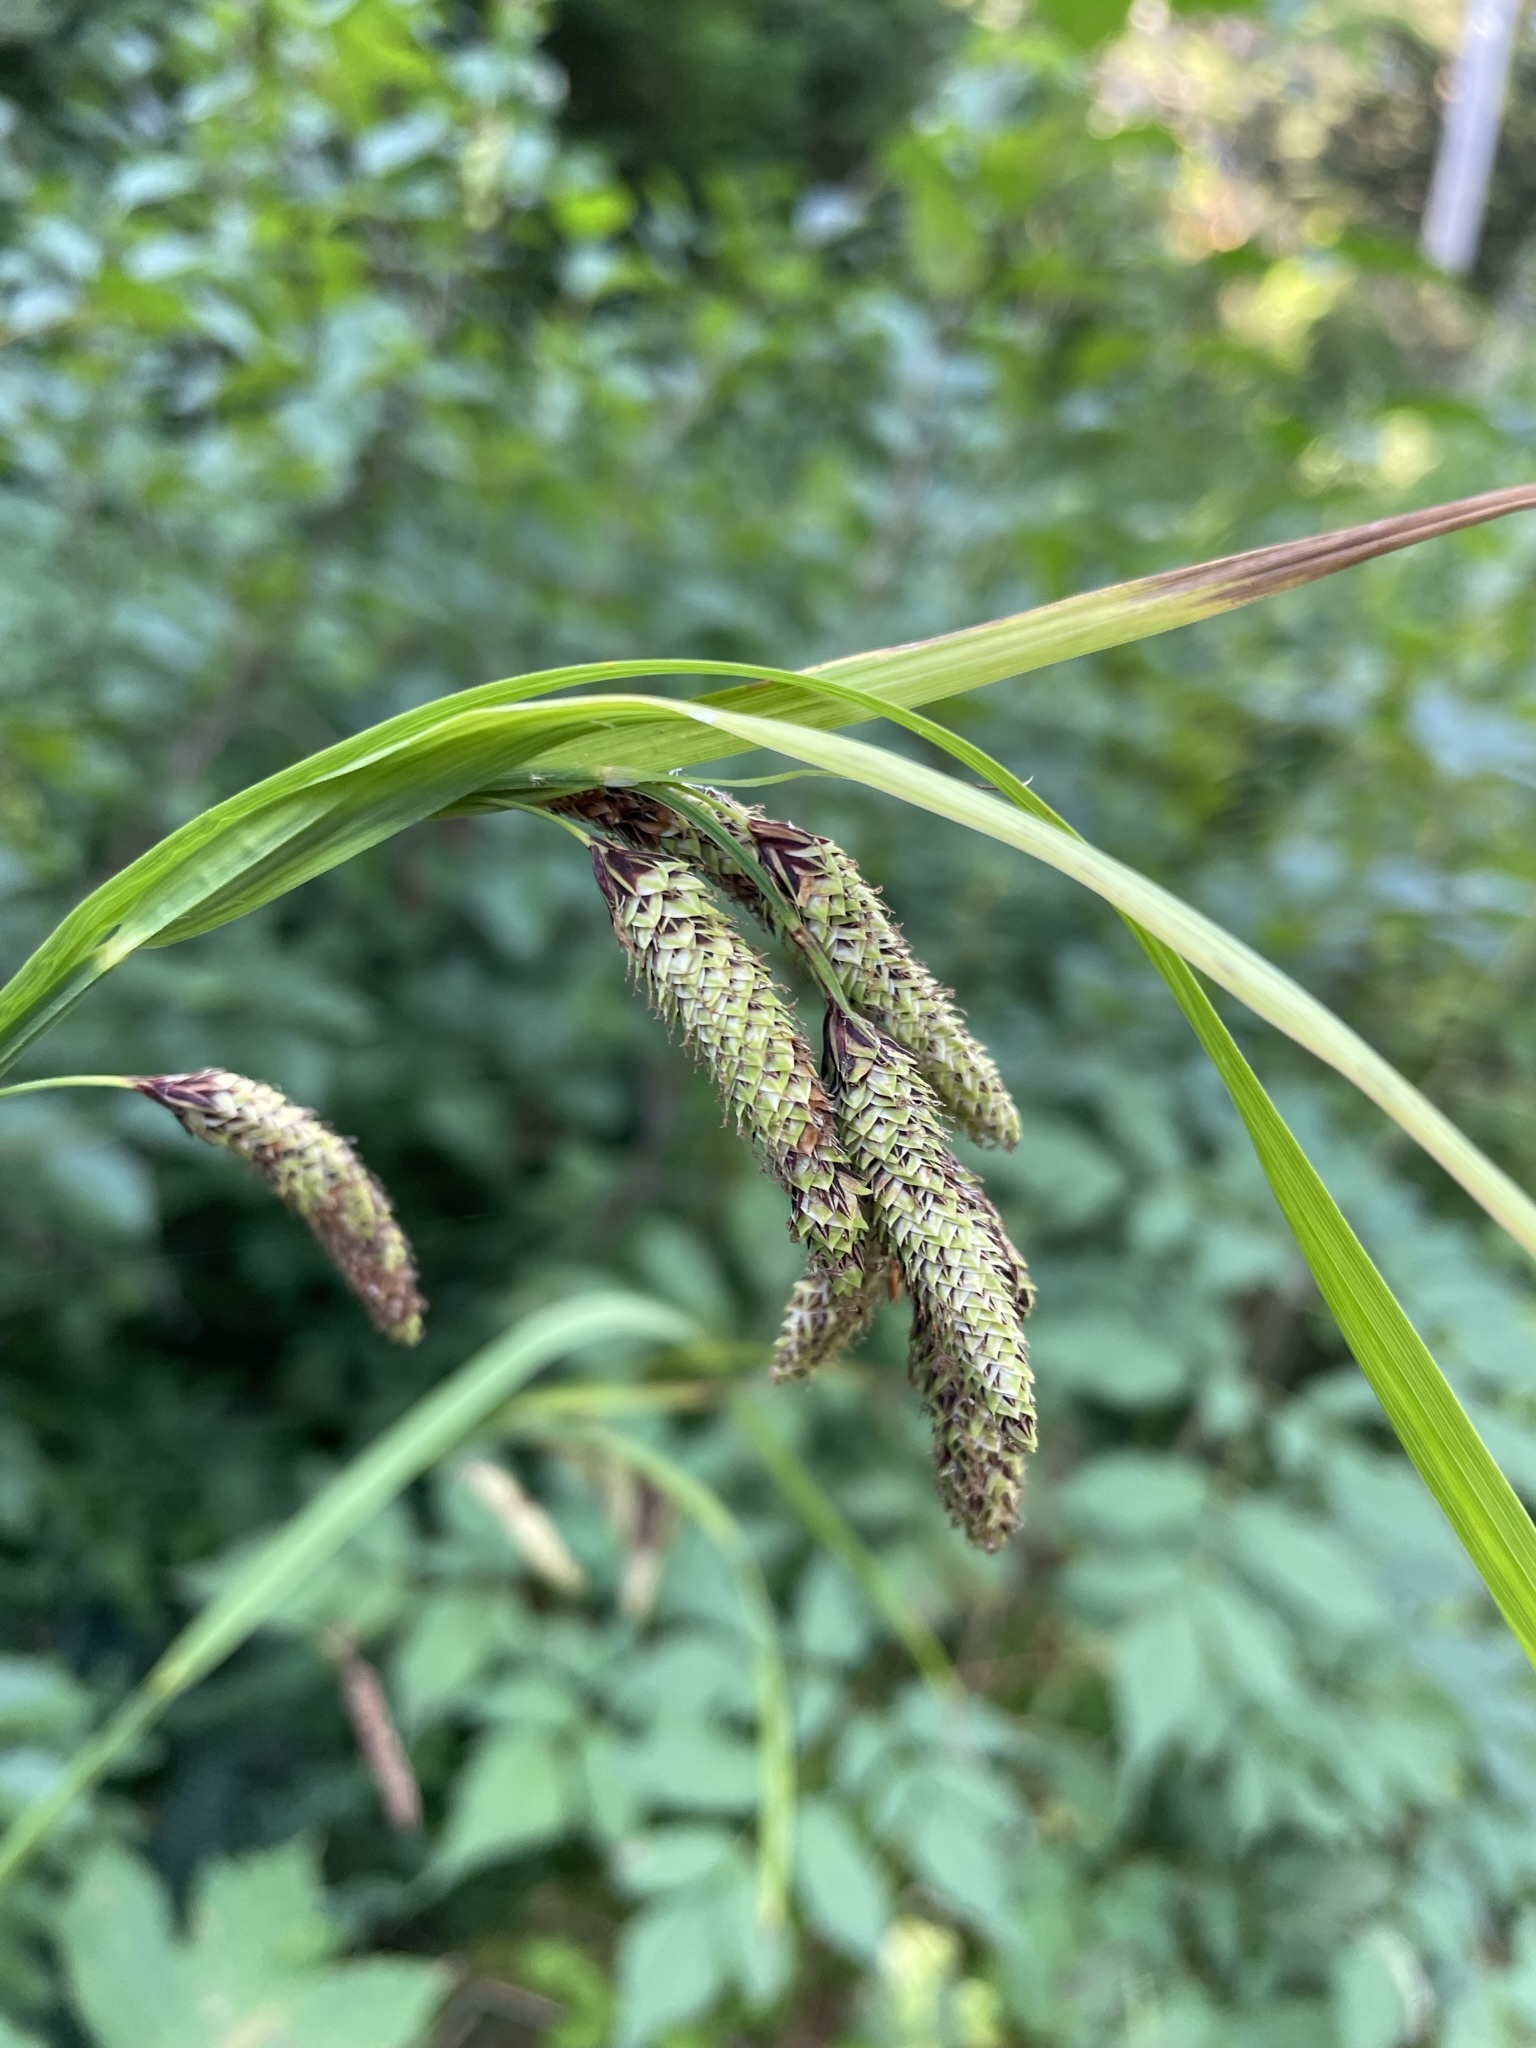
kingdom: Plantae
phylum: Tracheophyta
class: Liliopsida
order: Poales
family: Cyperaceae
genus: Carex
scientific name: Carex mertensii
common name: Mertens' sedge
